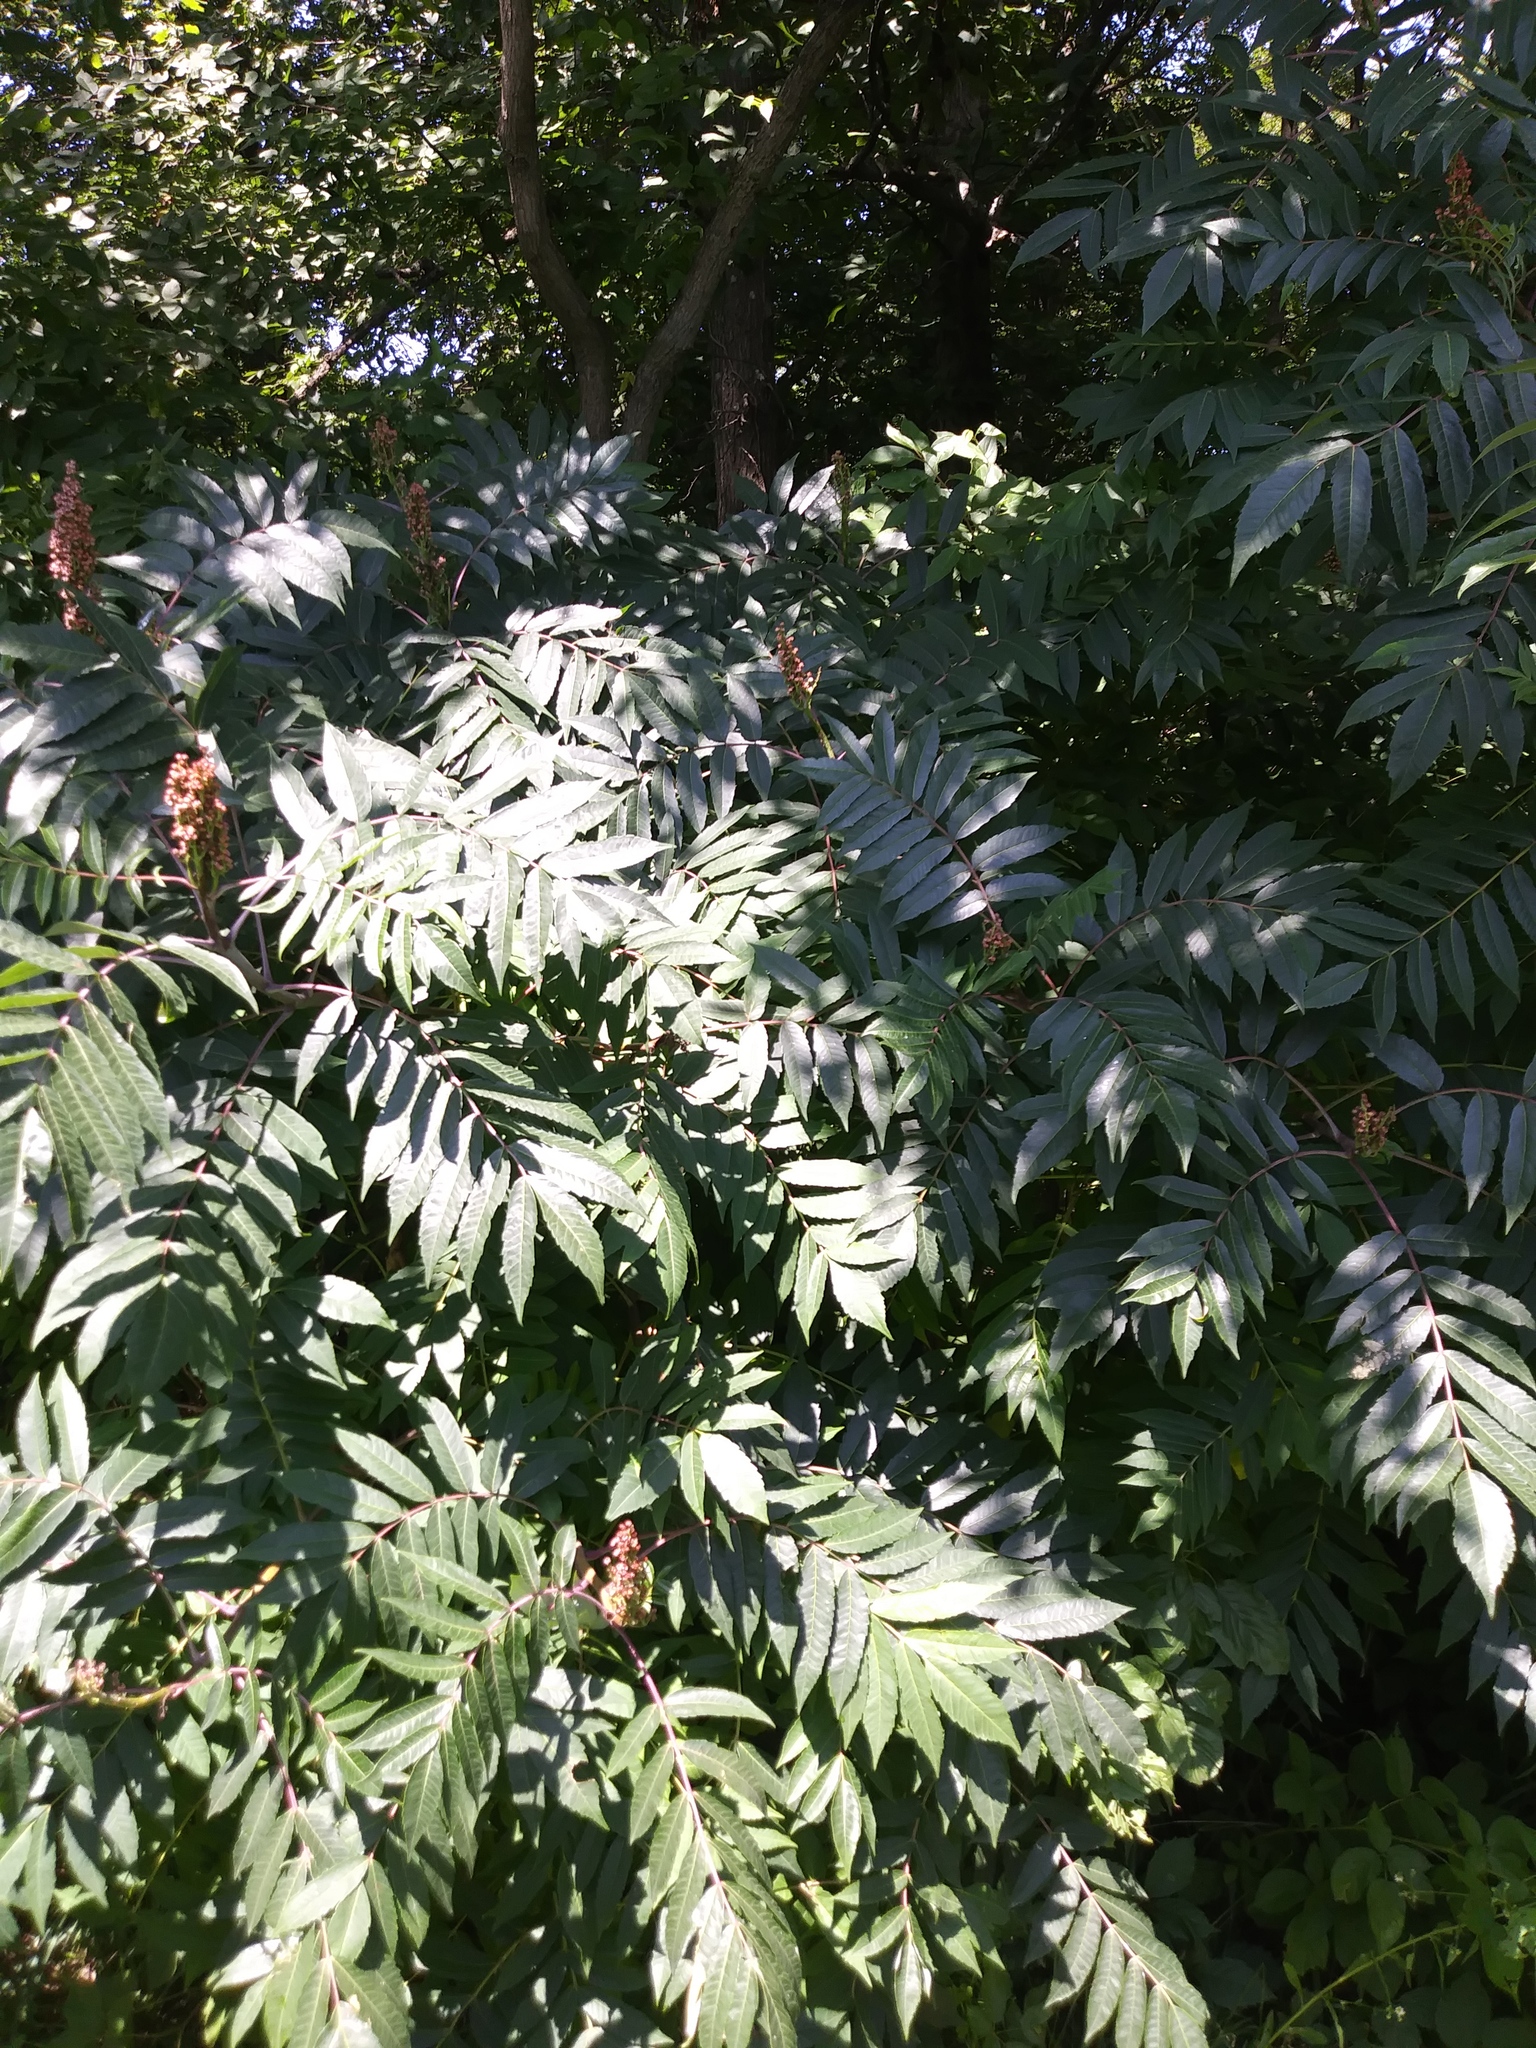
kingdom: Plantae
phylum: Tracheophyta
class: Magnoliopsida
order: Sapindales
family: Anacardiaceae
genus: Rhus
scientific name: Rhus glabra
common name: Scarlet sumac
